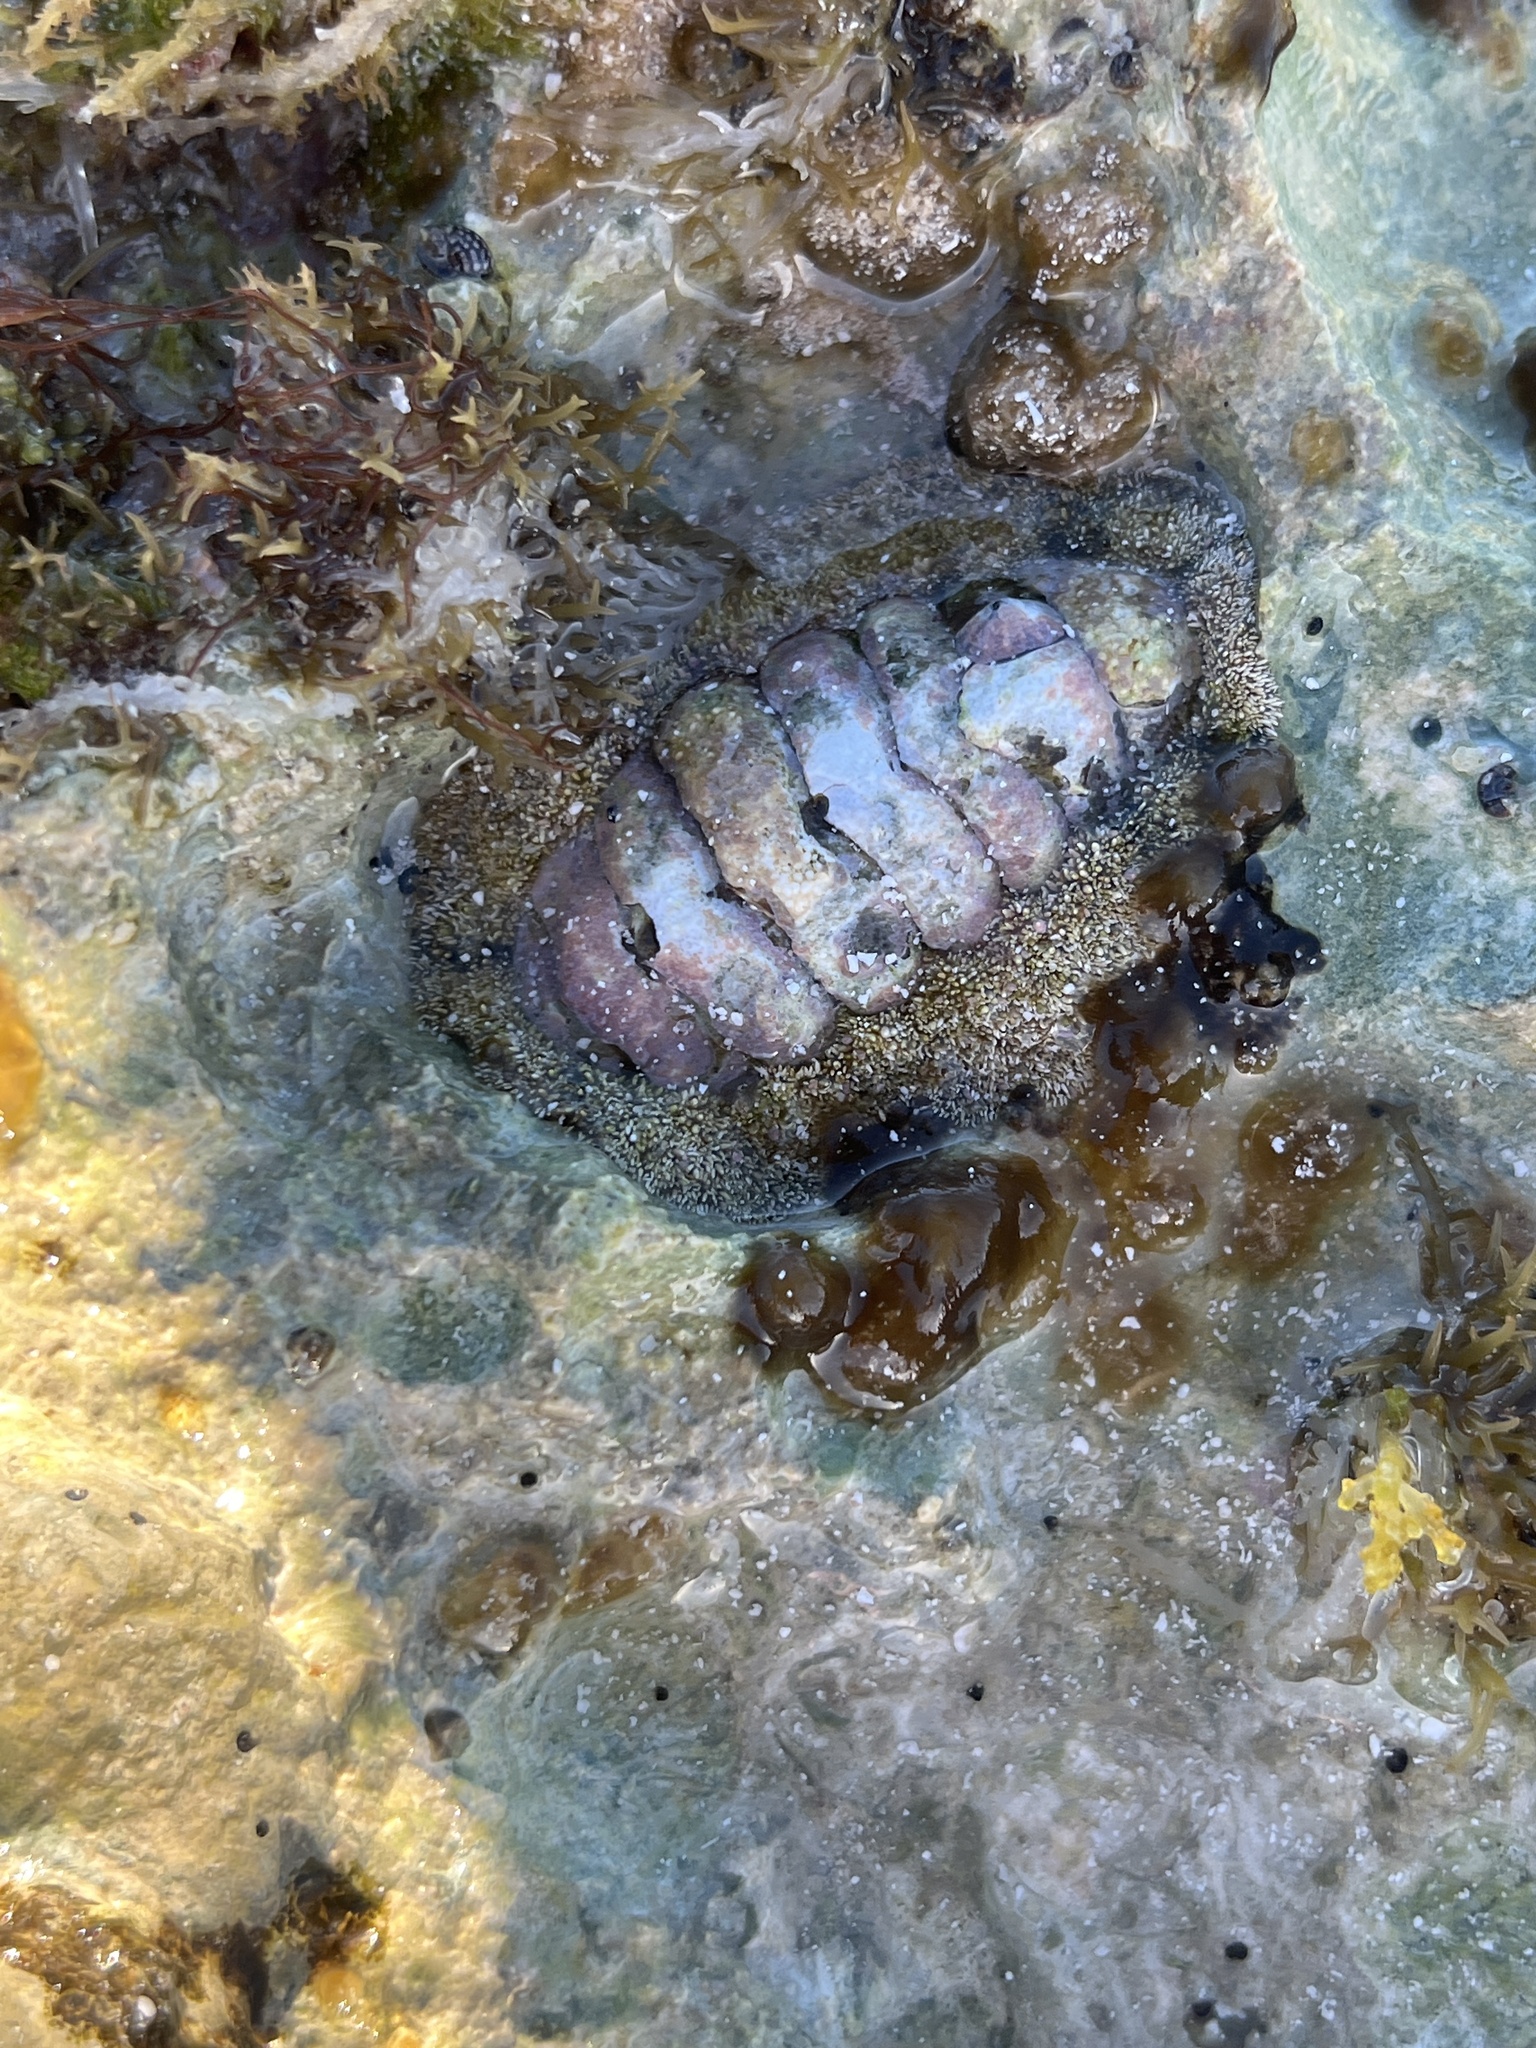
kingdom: Animalia
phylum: Mollusca
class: Polyplacophora
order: Chitonida
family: Chitonidae
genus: Acanthopleura
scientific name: Acanthopleura granulata
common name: West indian fuzzy chiton
